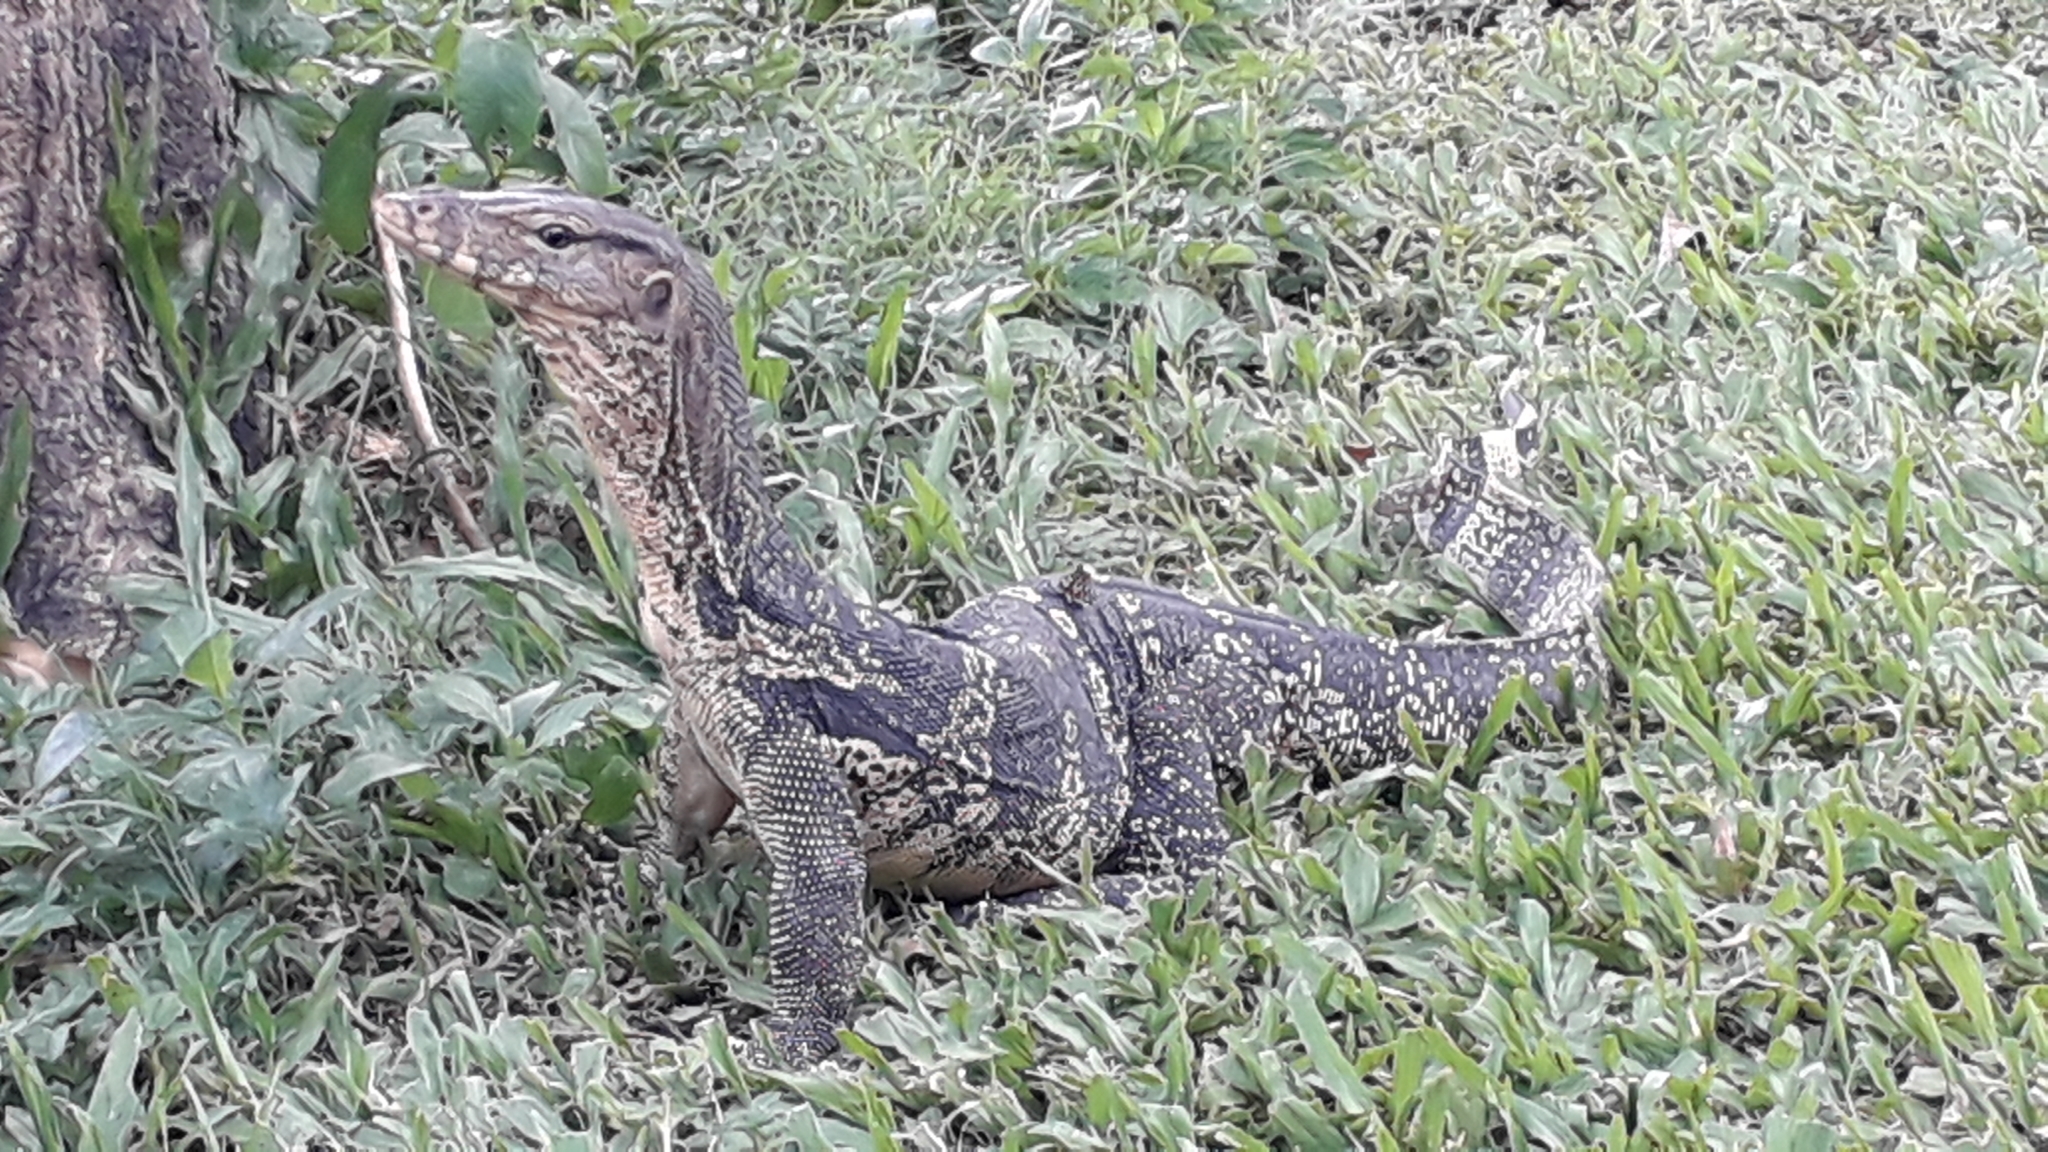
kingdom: Animalia
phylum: Chordata
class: Squamata
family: Varanidae
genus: Varanus
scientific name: Varanus salvator
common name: Common water monitor
